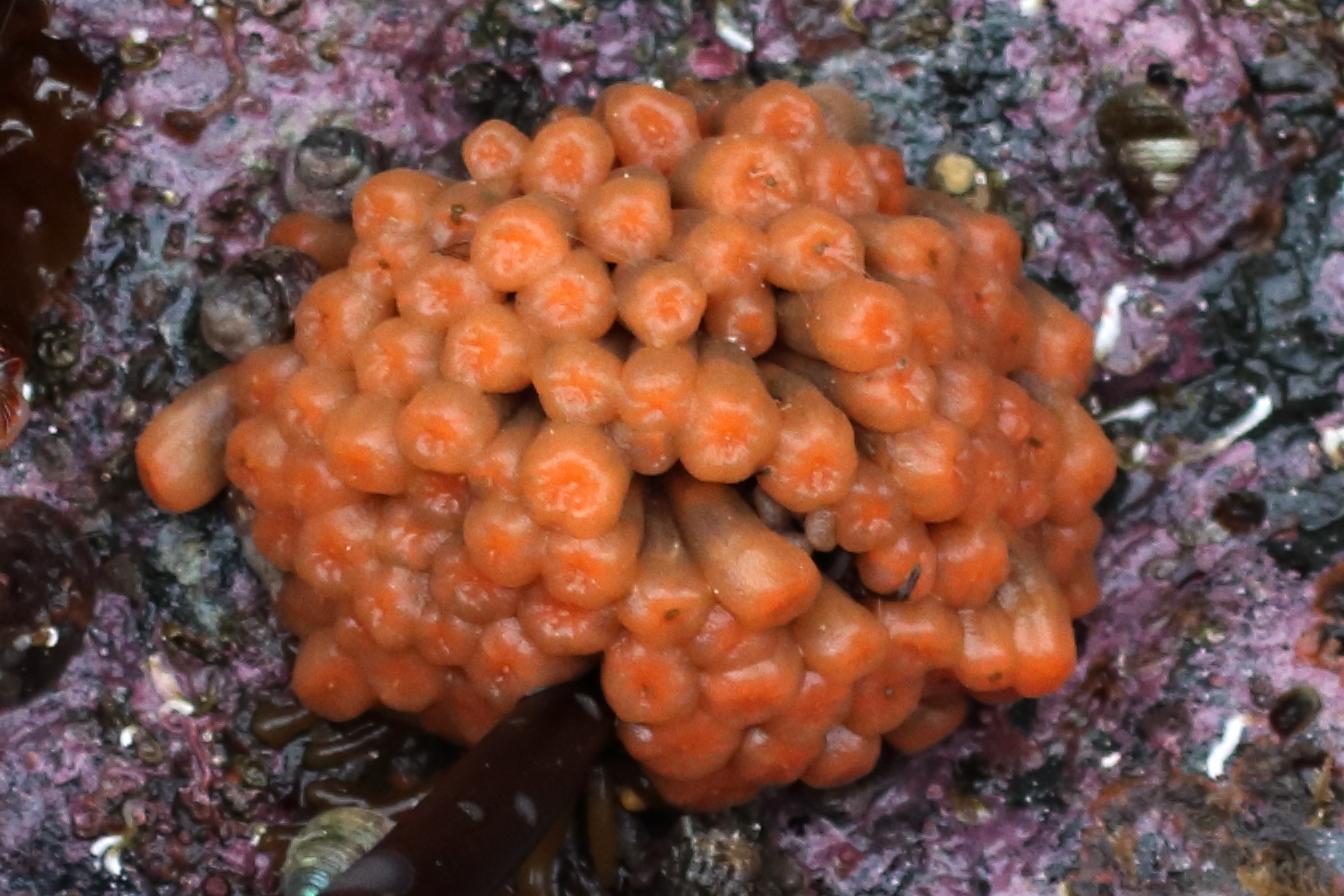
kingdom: Animalia
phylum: Chordata
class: Ascidiacea
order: Aplousobranchia
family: Polyclinidae
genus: Aplidium
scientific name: Aplidium coei
